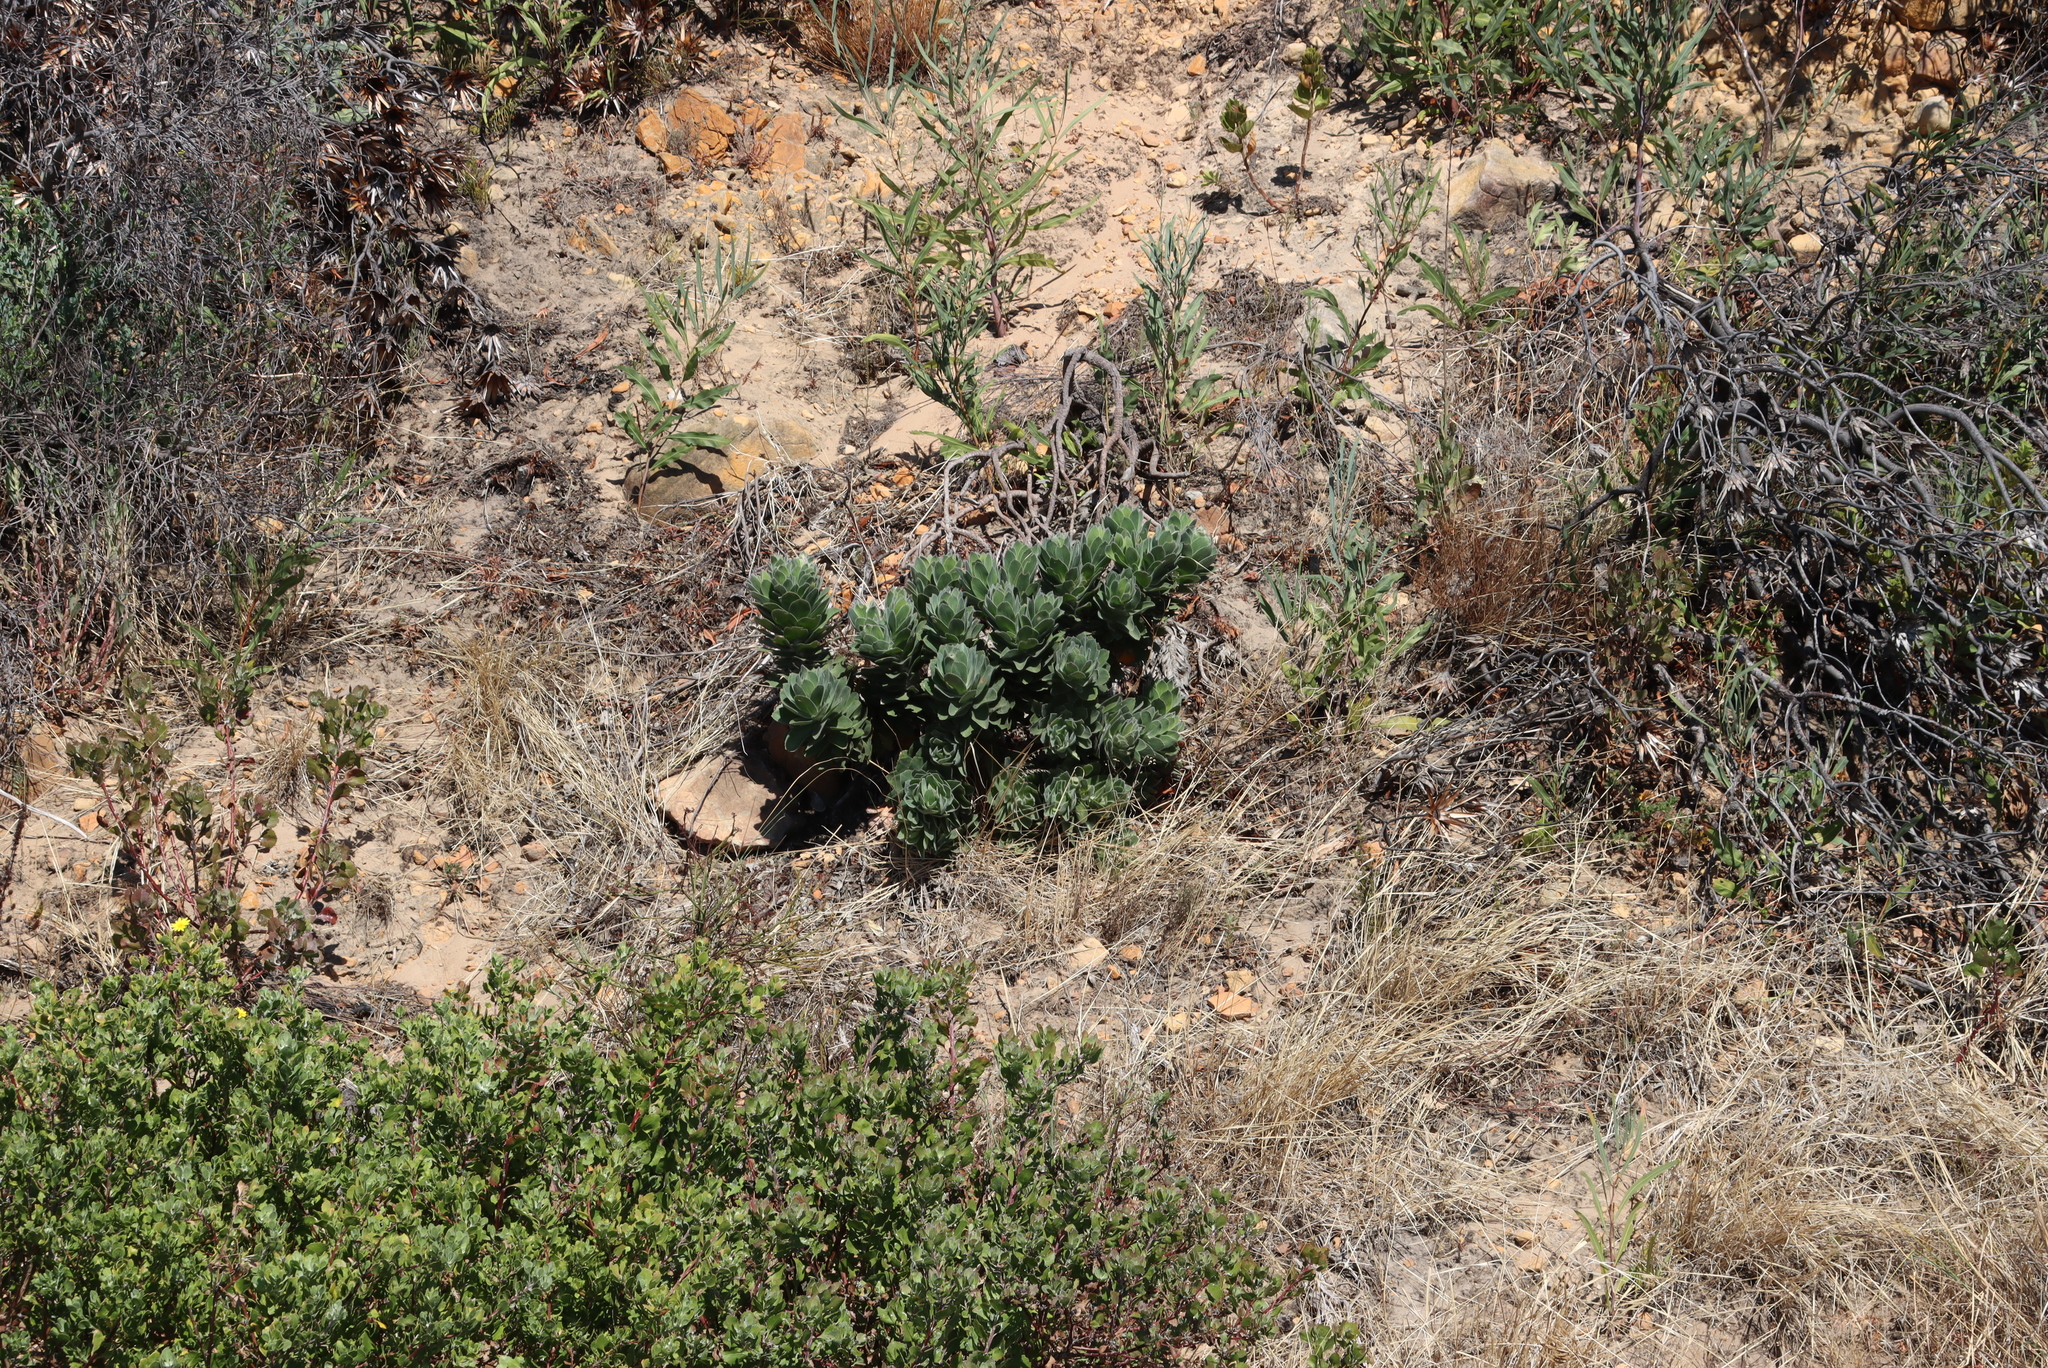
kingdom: Plantae
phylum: Tracheophyta
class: Magnoliopsida
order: Proteales
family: Proteaceae
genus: Leucospermum
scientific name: Leucospermum conocarpodendron
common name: Tree pincushion
